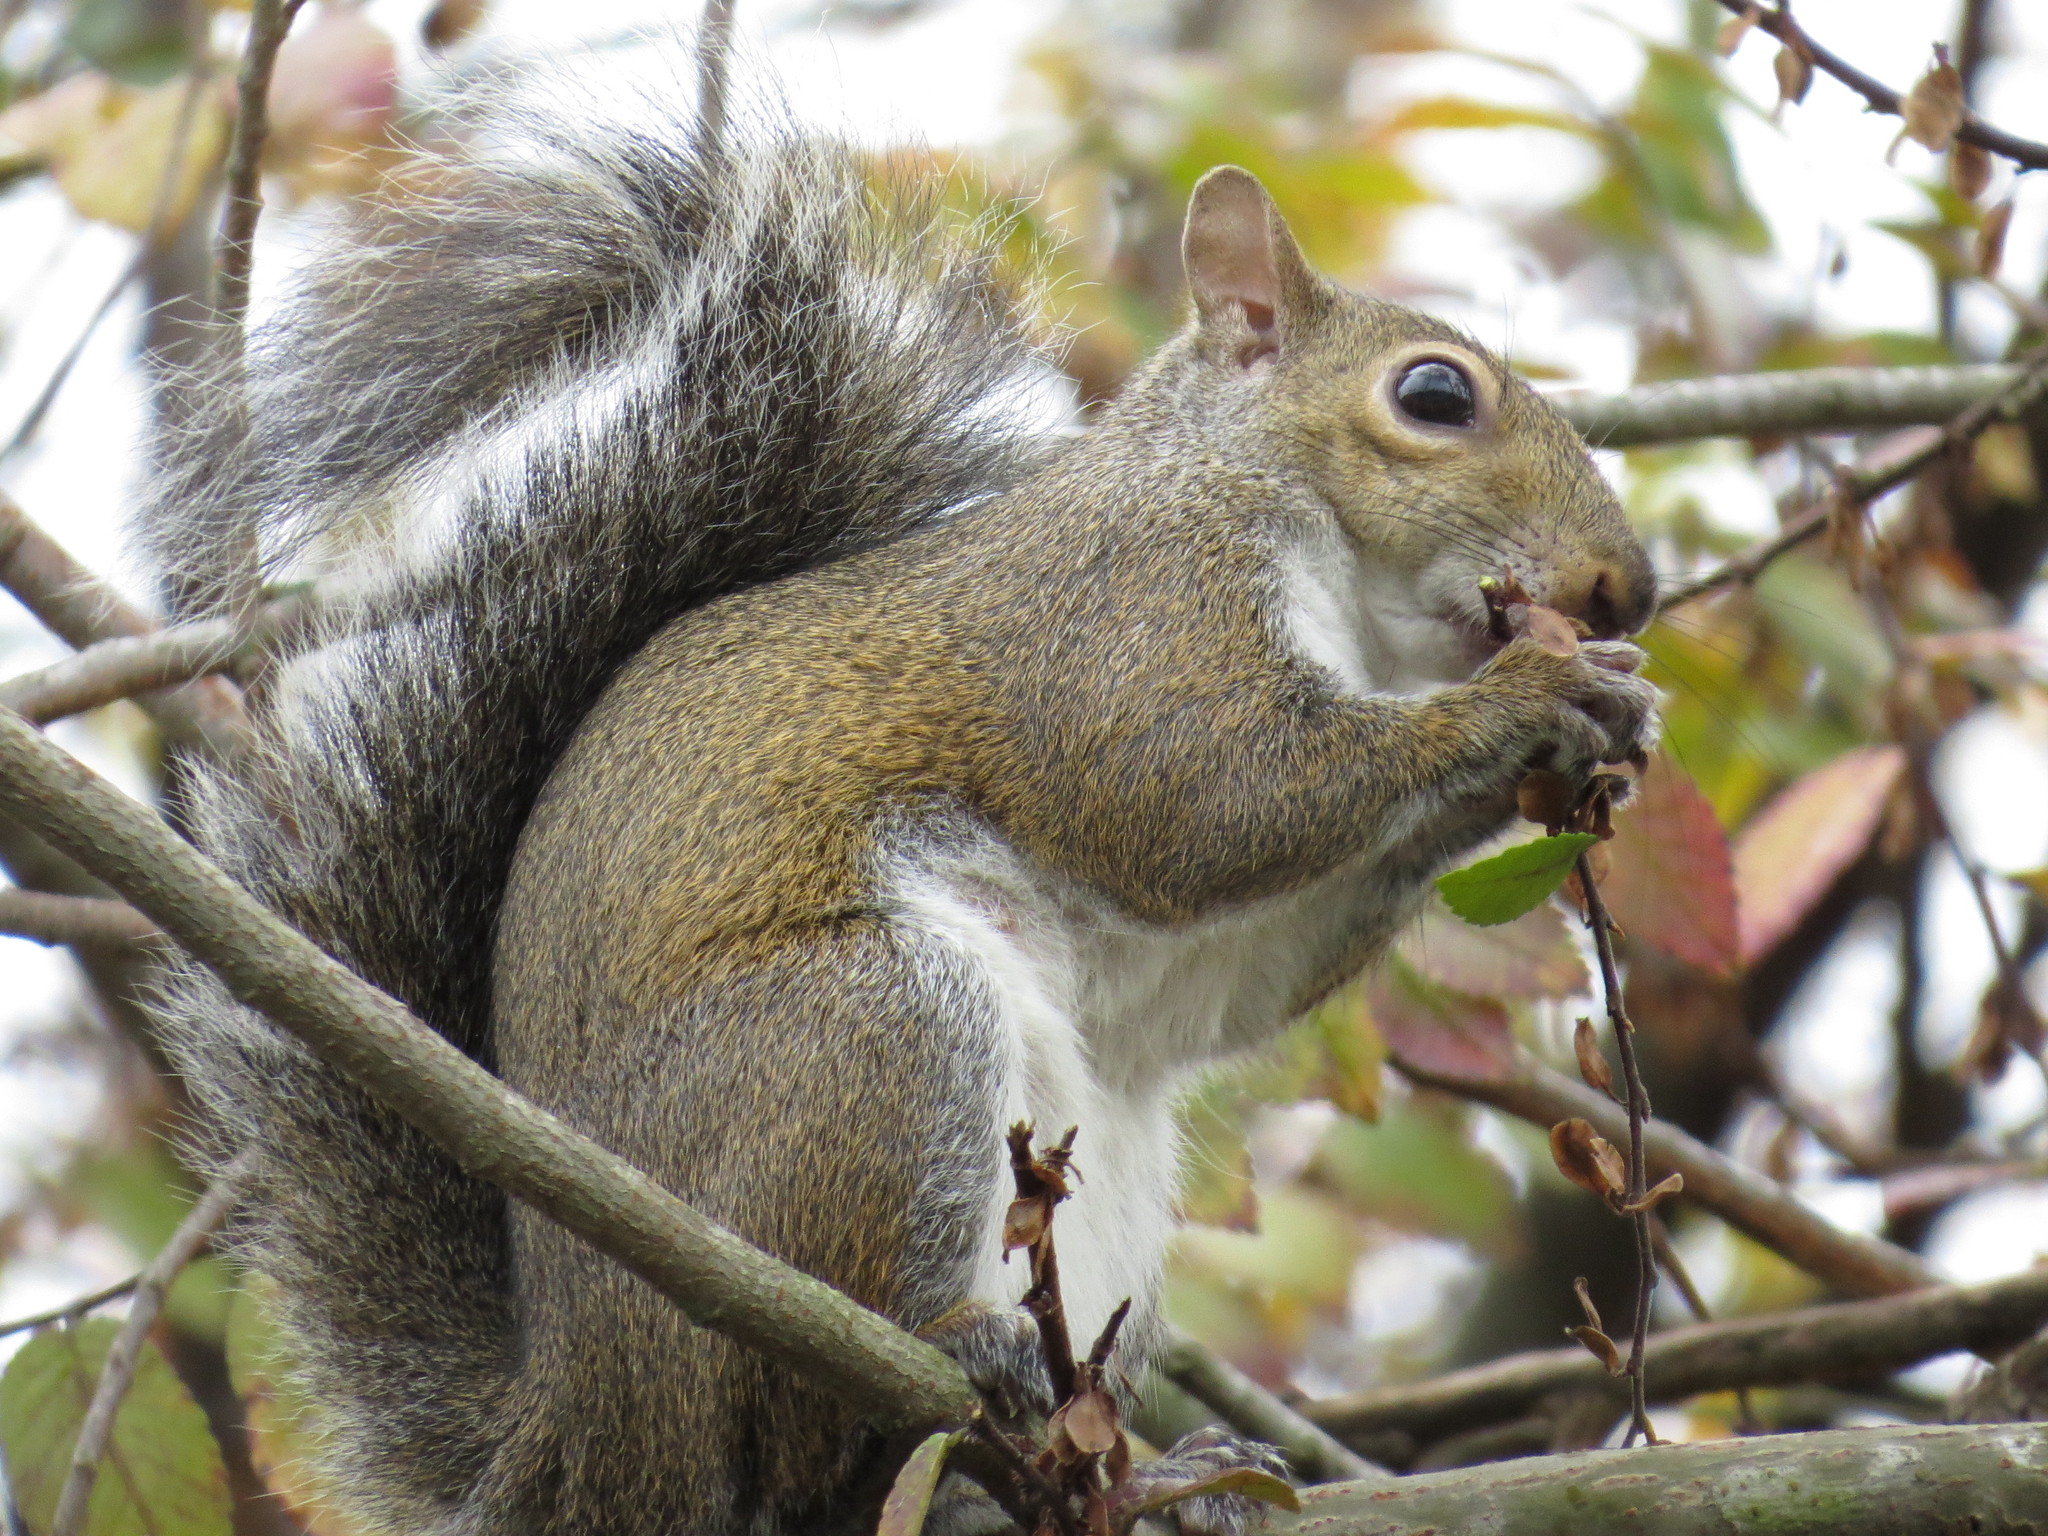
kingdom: Animalia
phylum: Chordata
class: Mammalia
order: Rodentia
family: Sciuridae
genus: Sciurus
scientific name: Sciurus carolinensis
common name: Eastern gray squirrel
